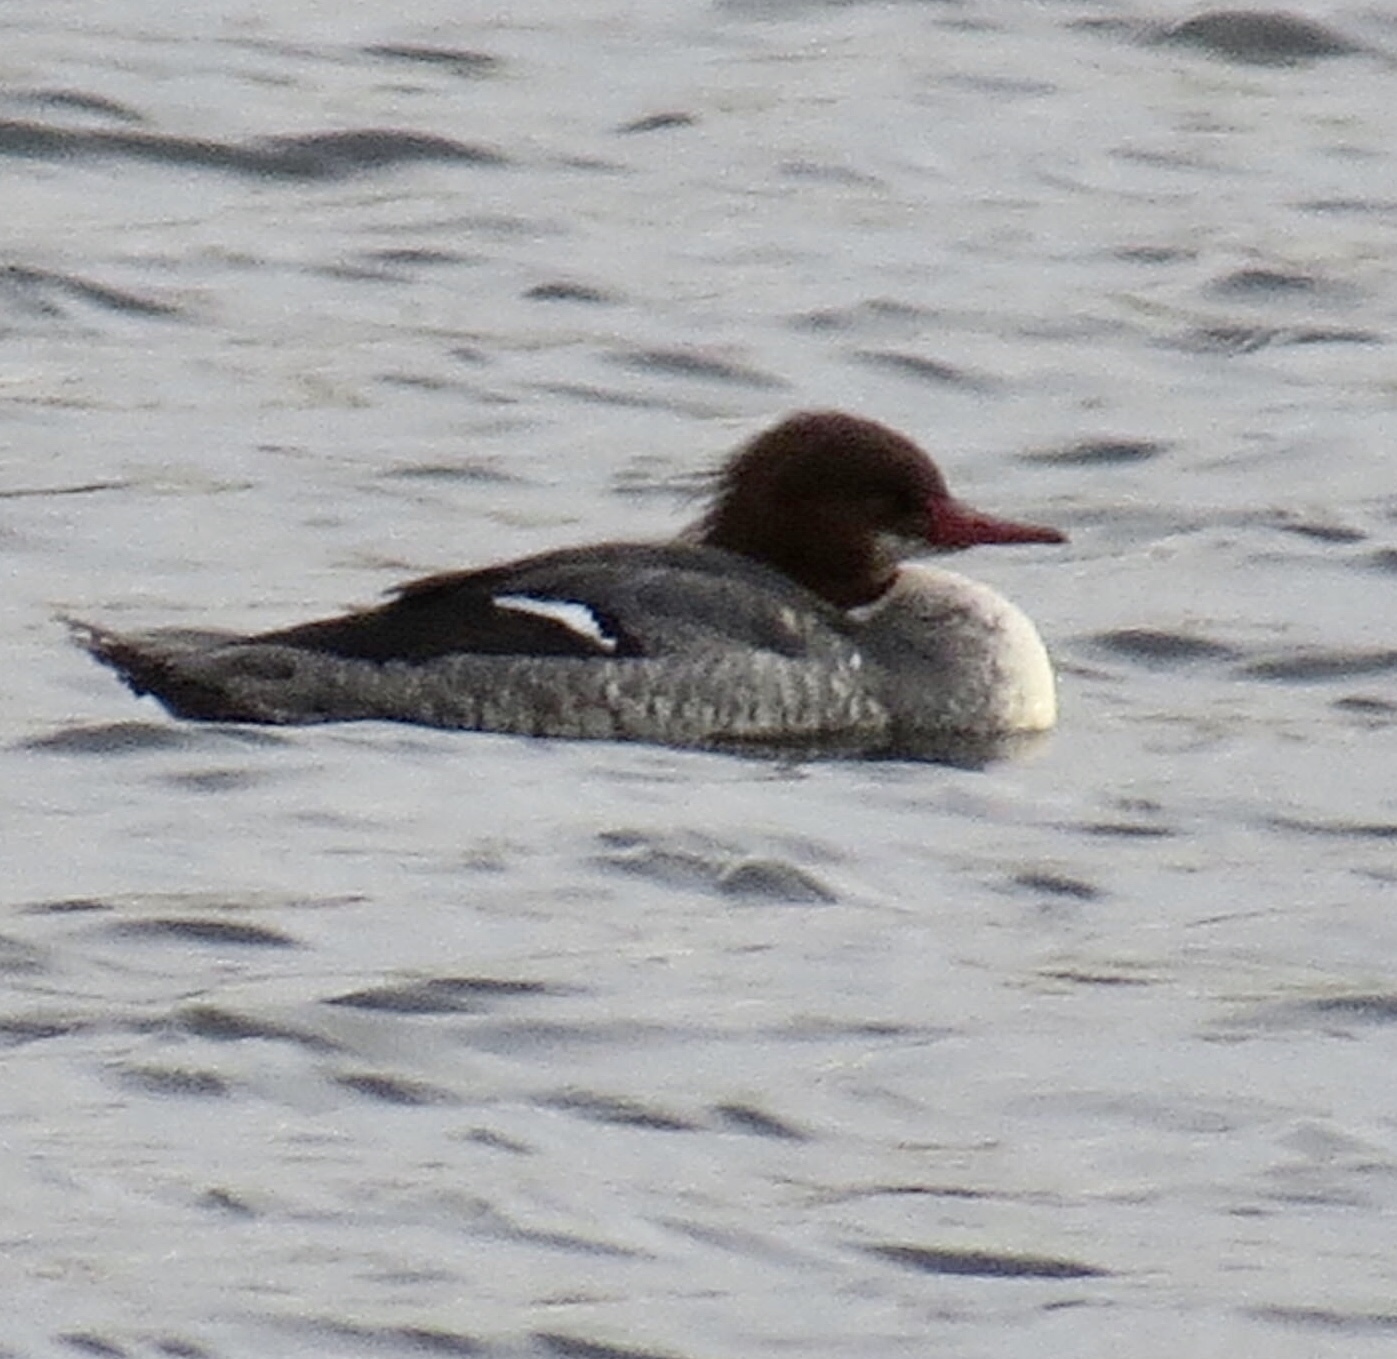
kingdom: Animalia
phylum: Chordata
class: Aves
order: Anseriformes
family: Anatidae
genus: Mergus
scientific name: Mergus merganser
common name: Common merganser
